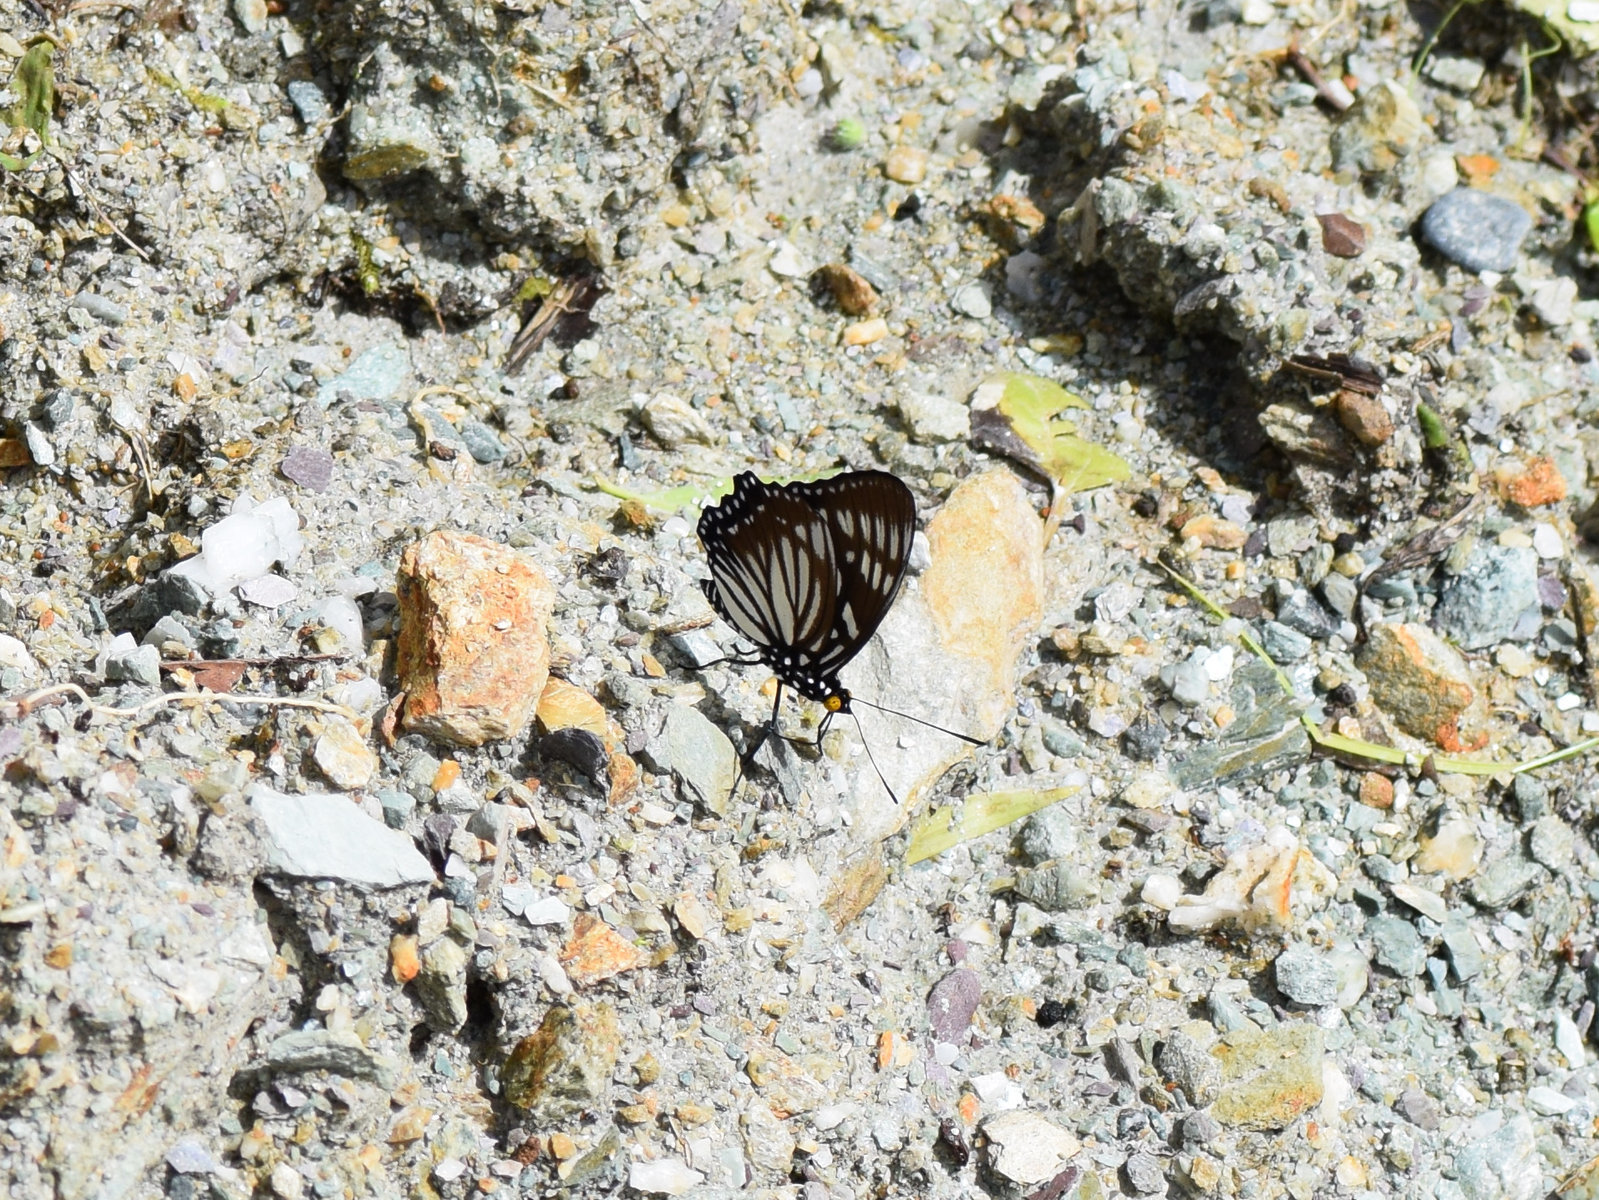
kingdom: Animalia
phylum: Arthropoda
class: Insecta
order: Lepidoptera
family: Nymphalidae
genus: Euripus
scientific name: Euripus nyctelius
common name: Courtesan
